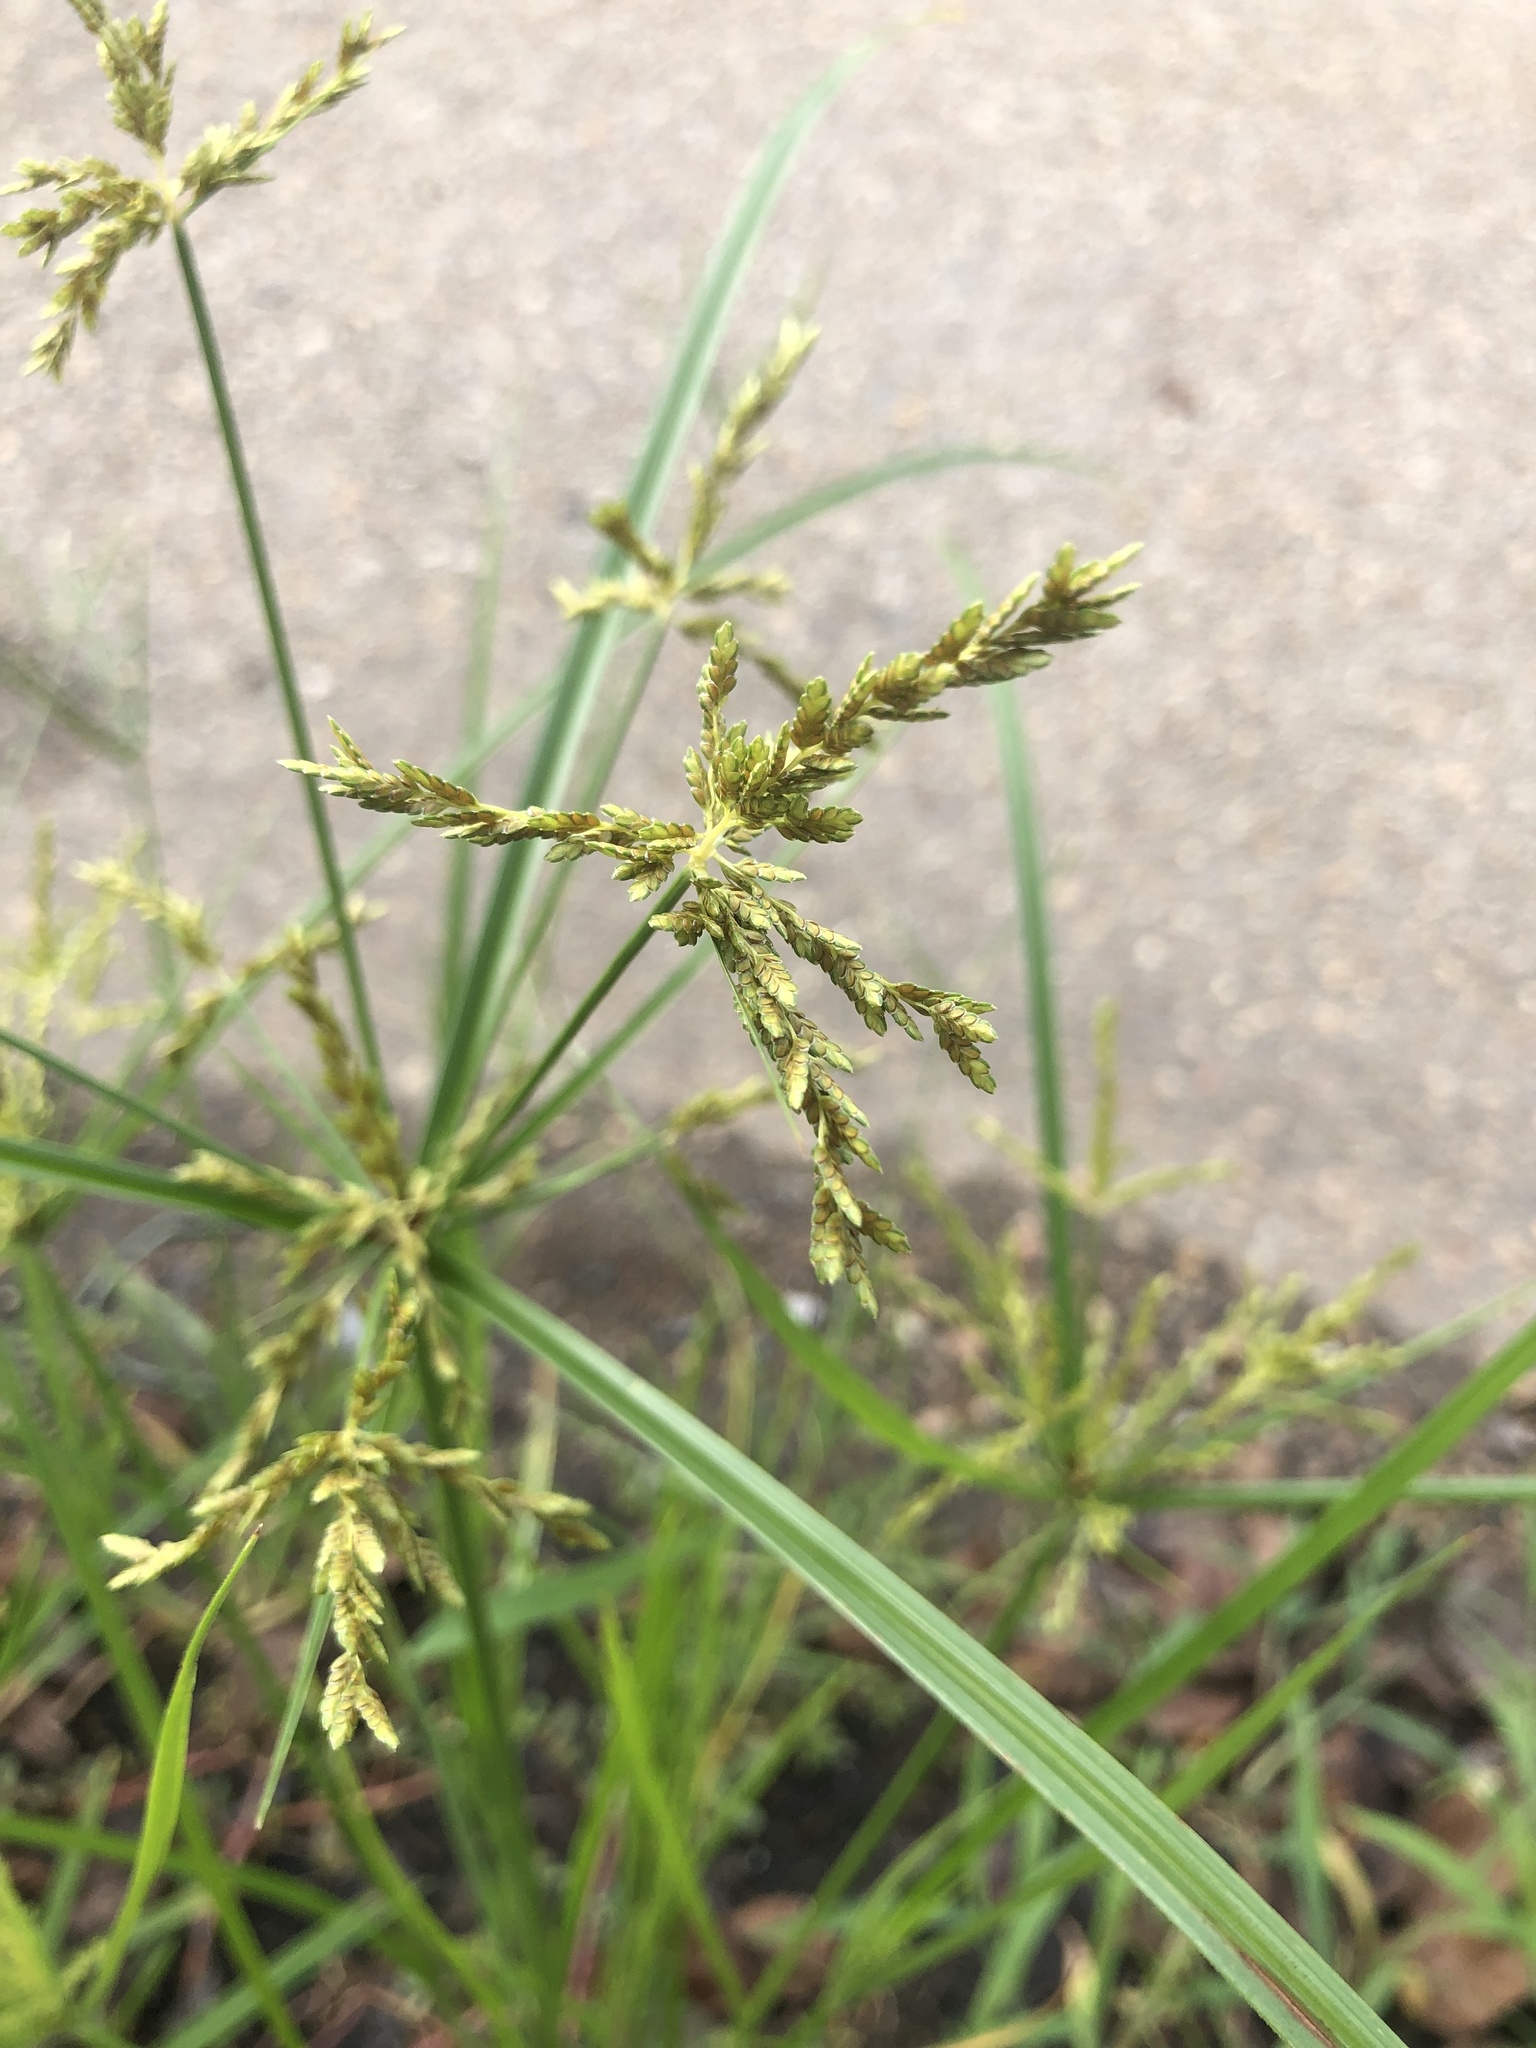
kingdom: Plantae
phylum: Tracheophyta
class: Liliopsida
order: Poales
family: Cyperaceae
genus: Cyperus
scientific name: Cyperus iria
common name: Ricefield flatsedge
